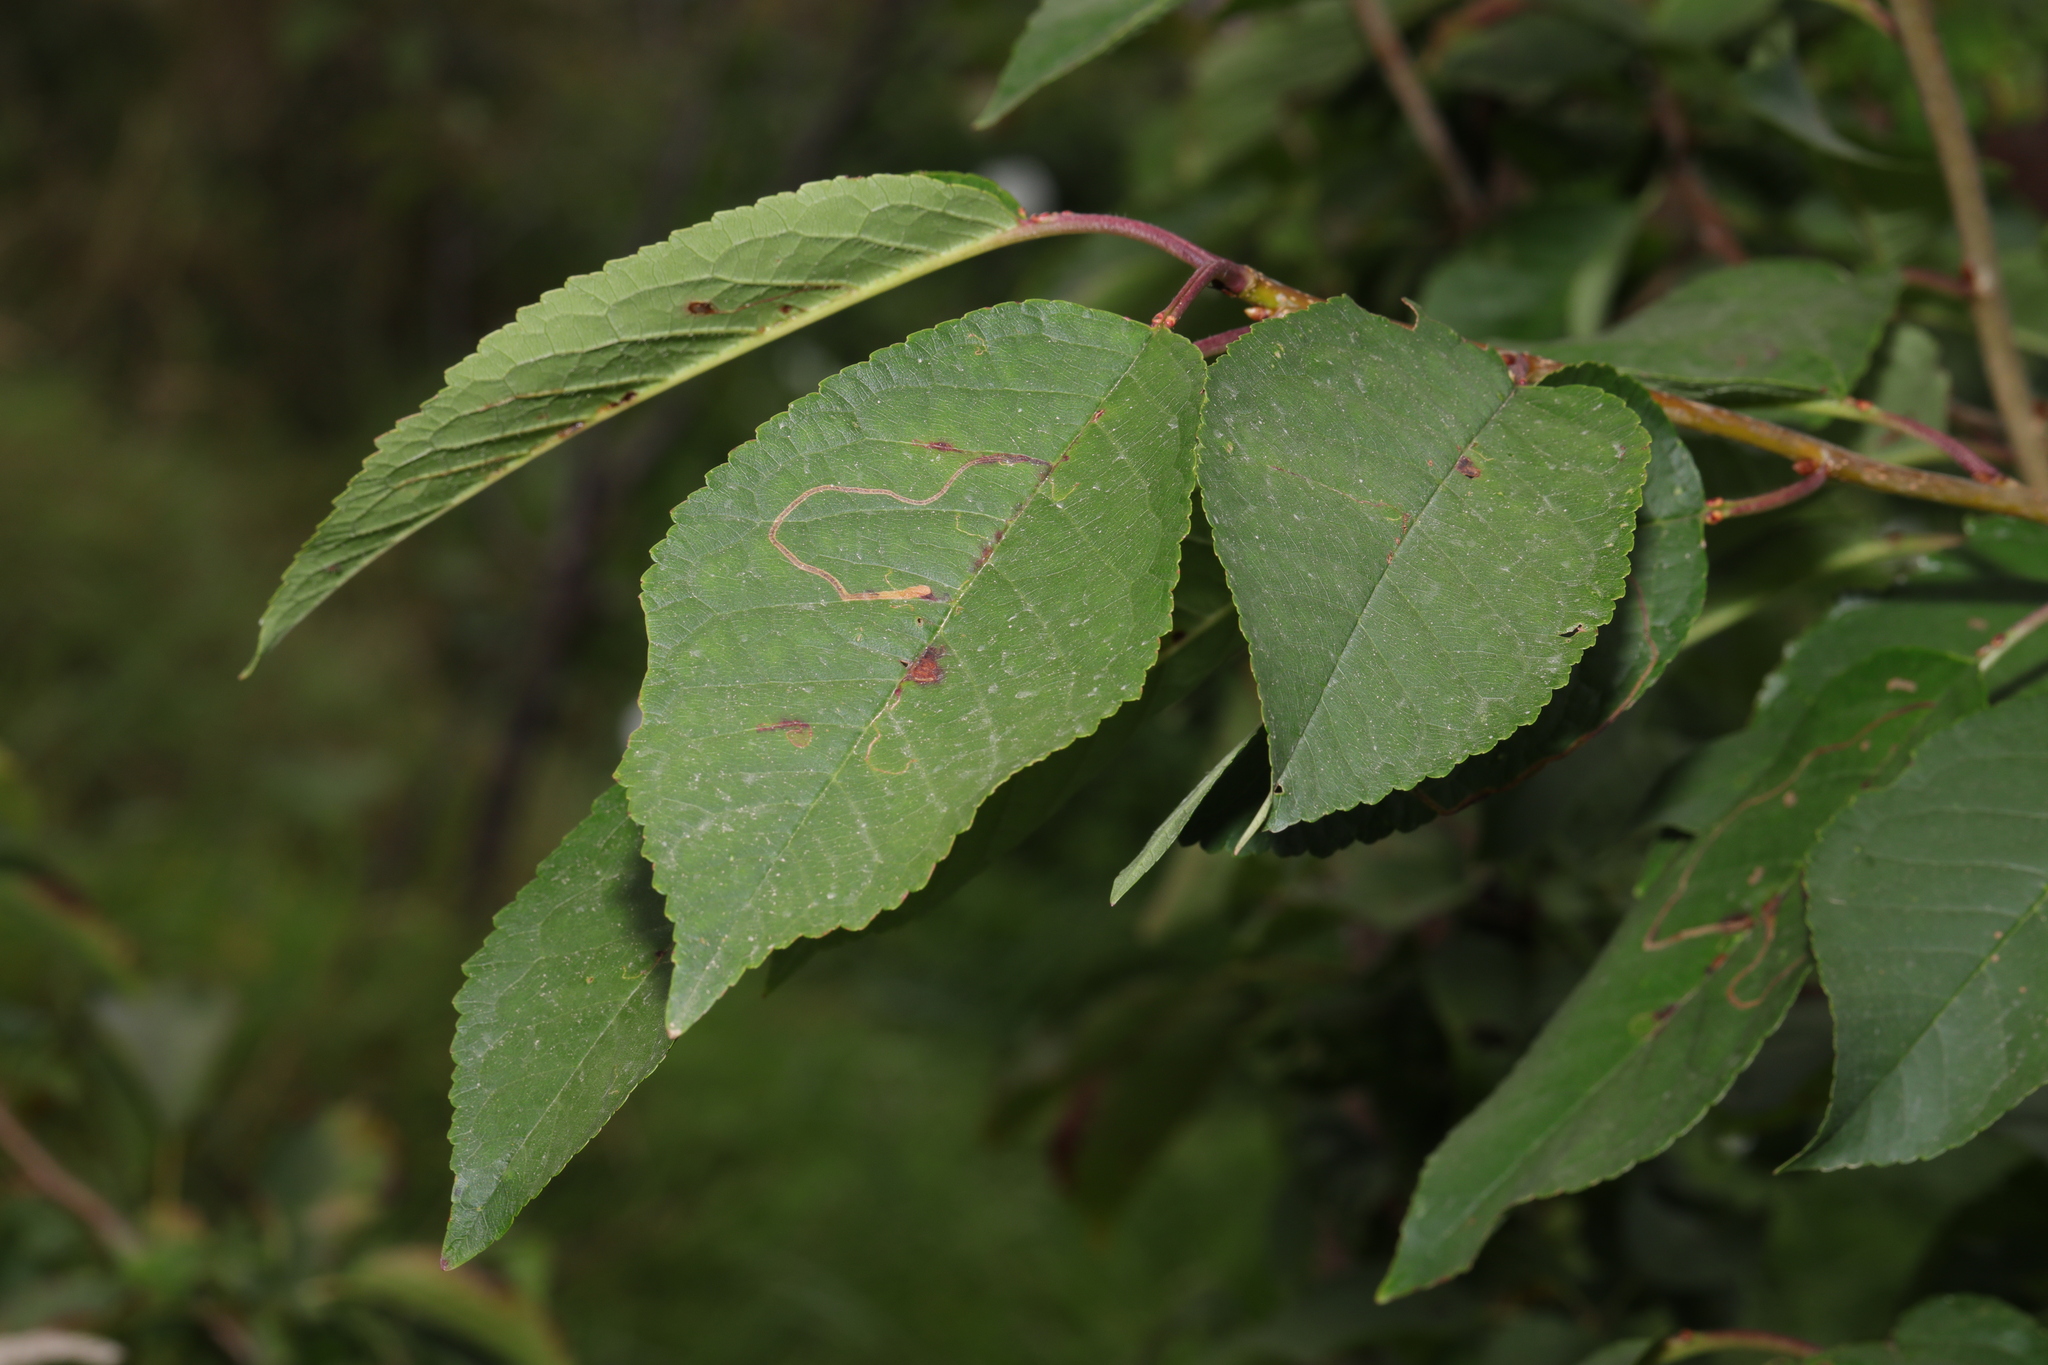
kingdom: Plantae
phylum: Tracheophyta
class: Magnoliopsida
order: Rosales
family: Rosaceae
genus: Prunus
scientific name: Prunus avium
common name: Sweet cherry
